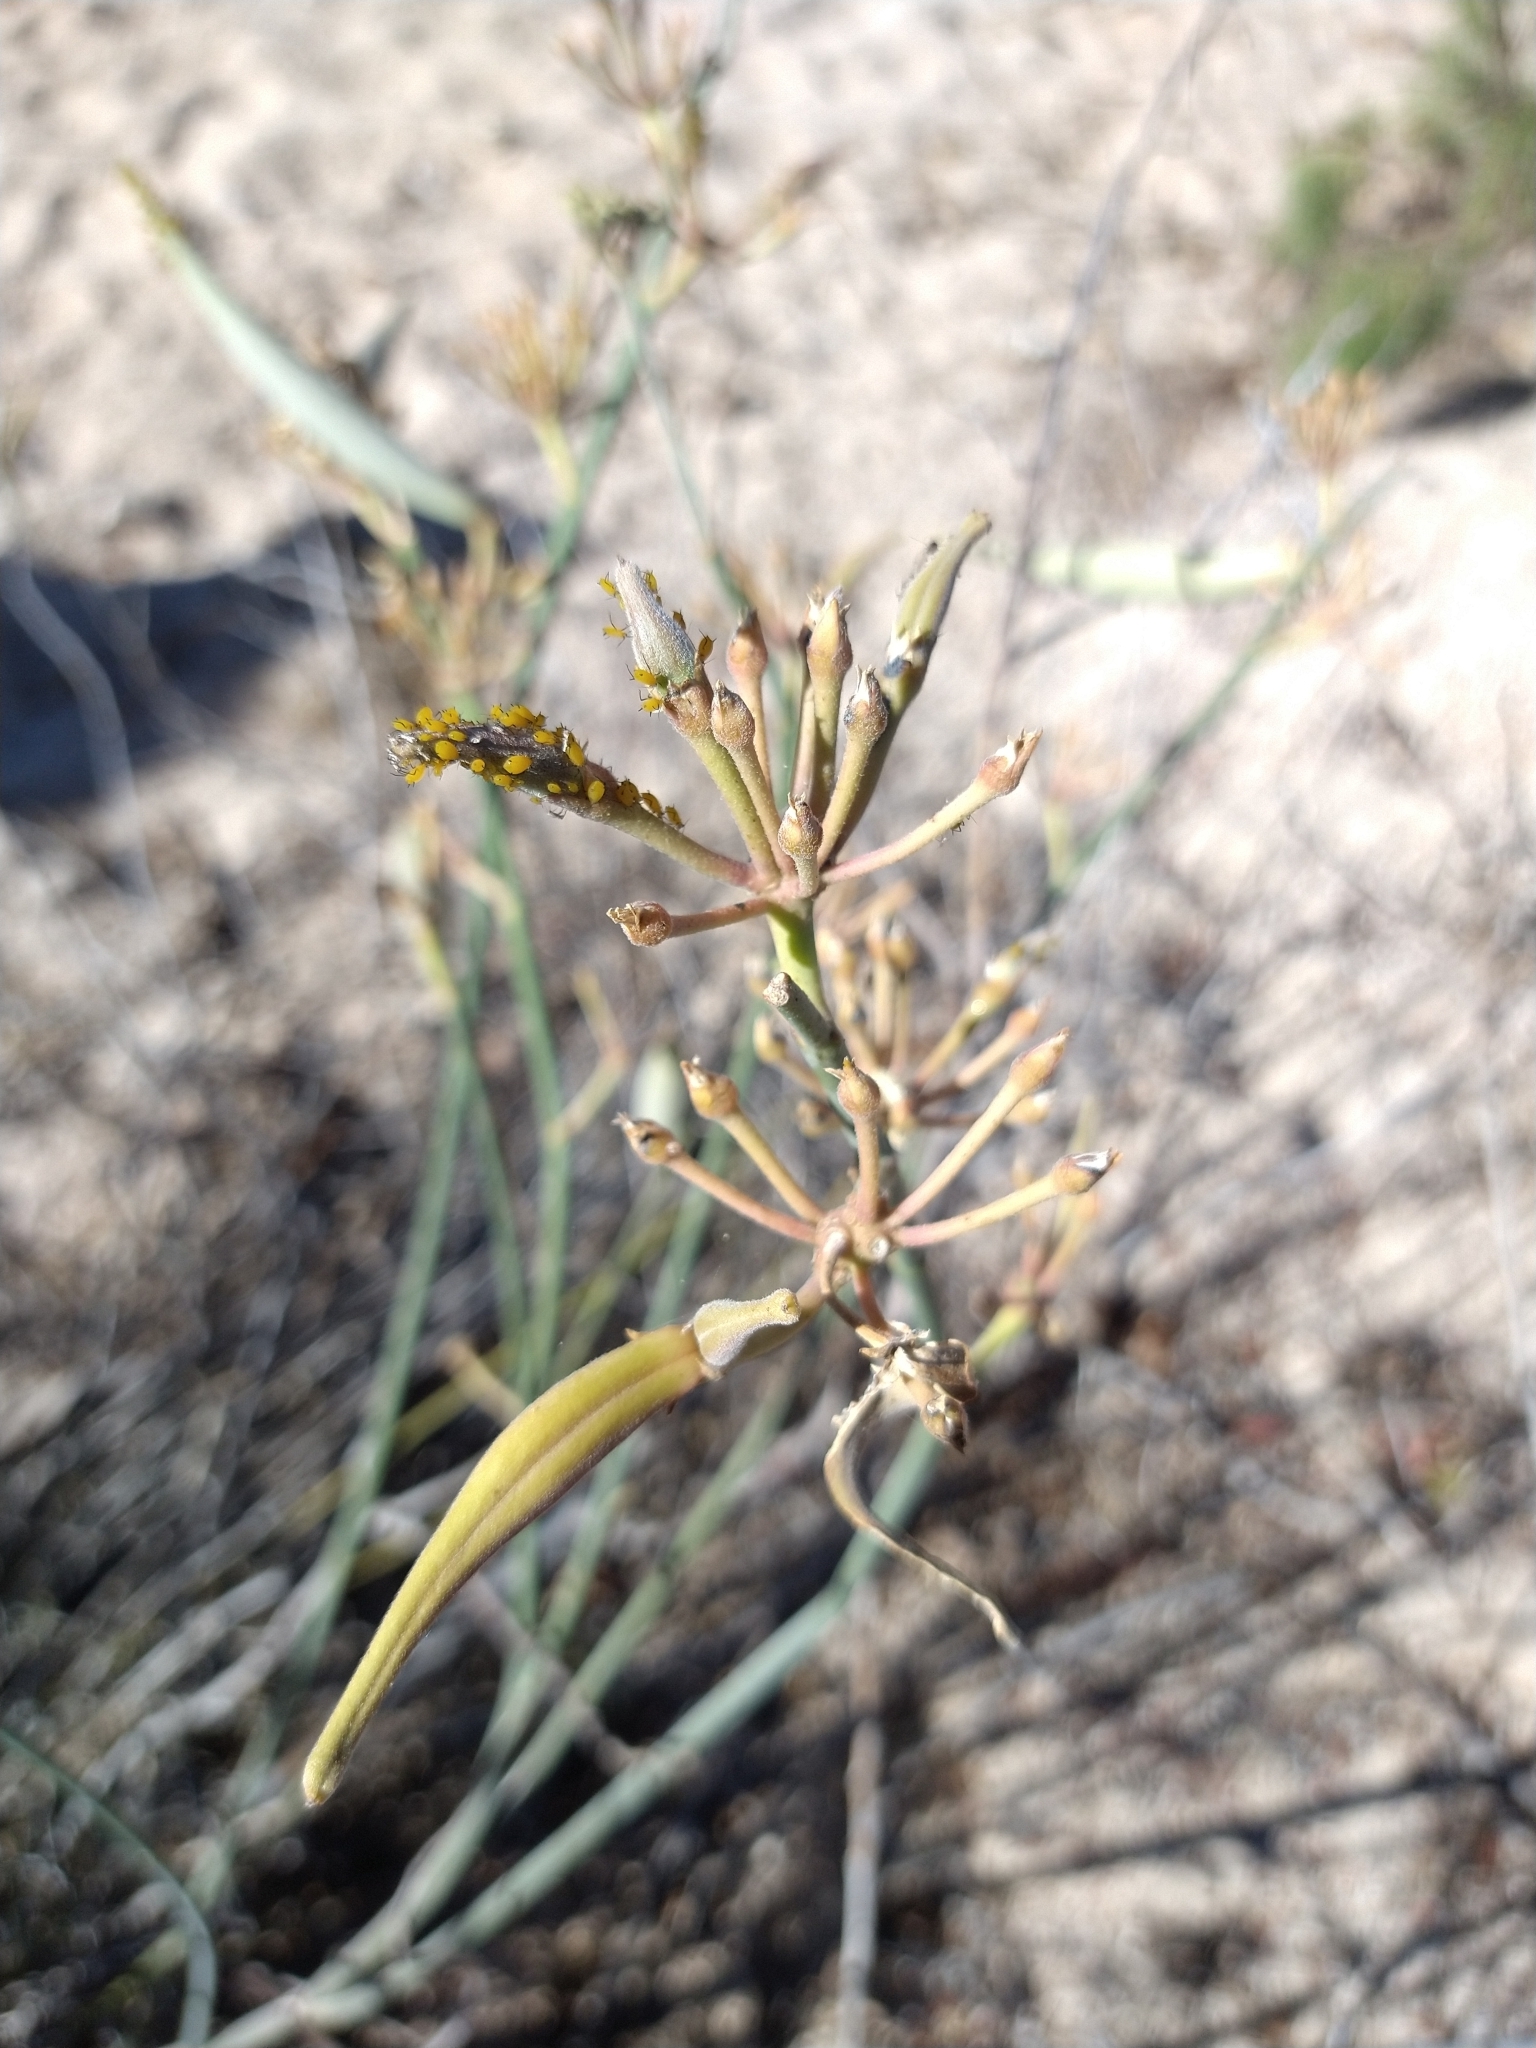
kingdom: Plantae
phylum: Tracheophyta
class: Magnoliopsida
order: Gentianales
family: Apocynaceae
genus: Asclepias
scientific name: Asclepias subulata
